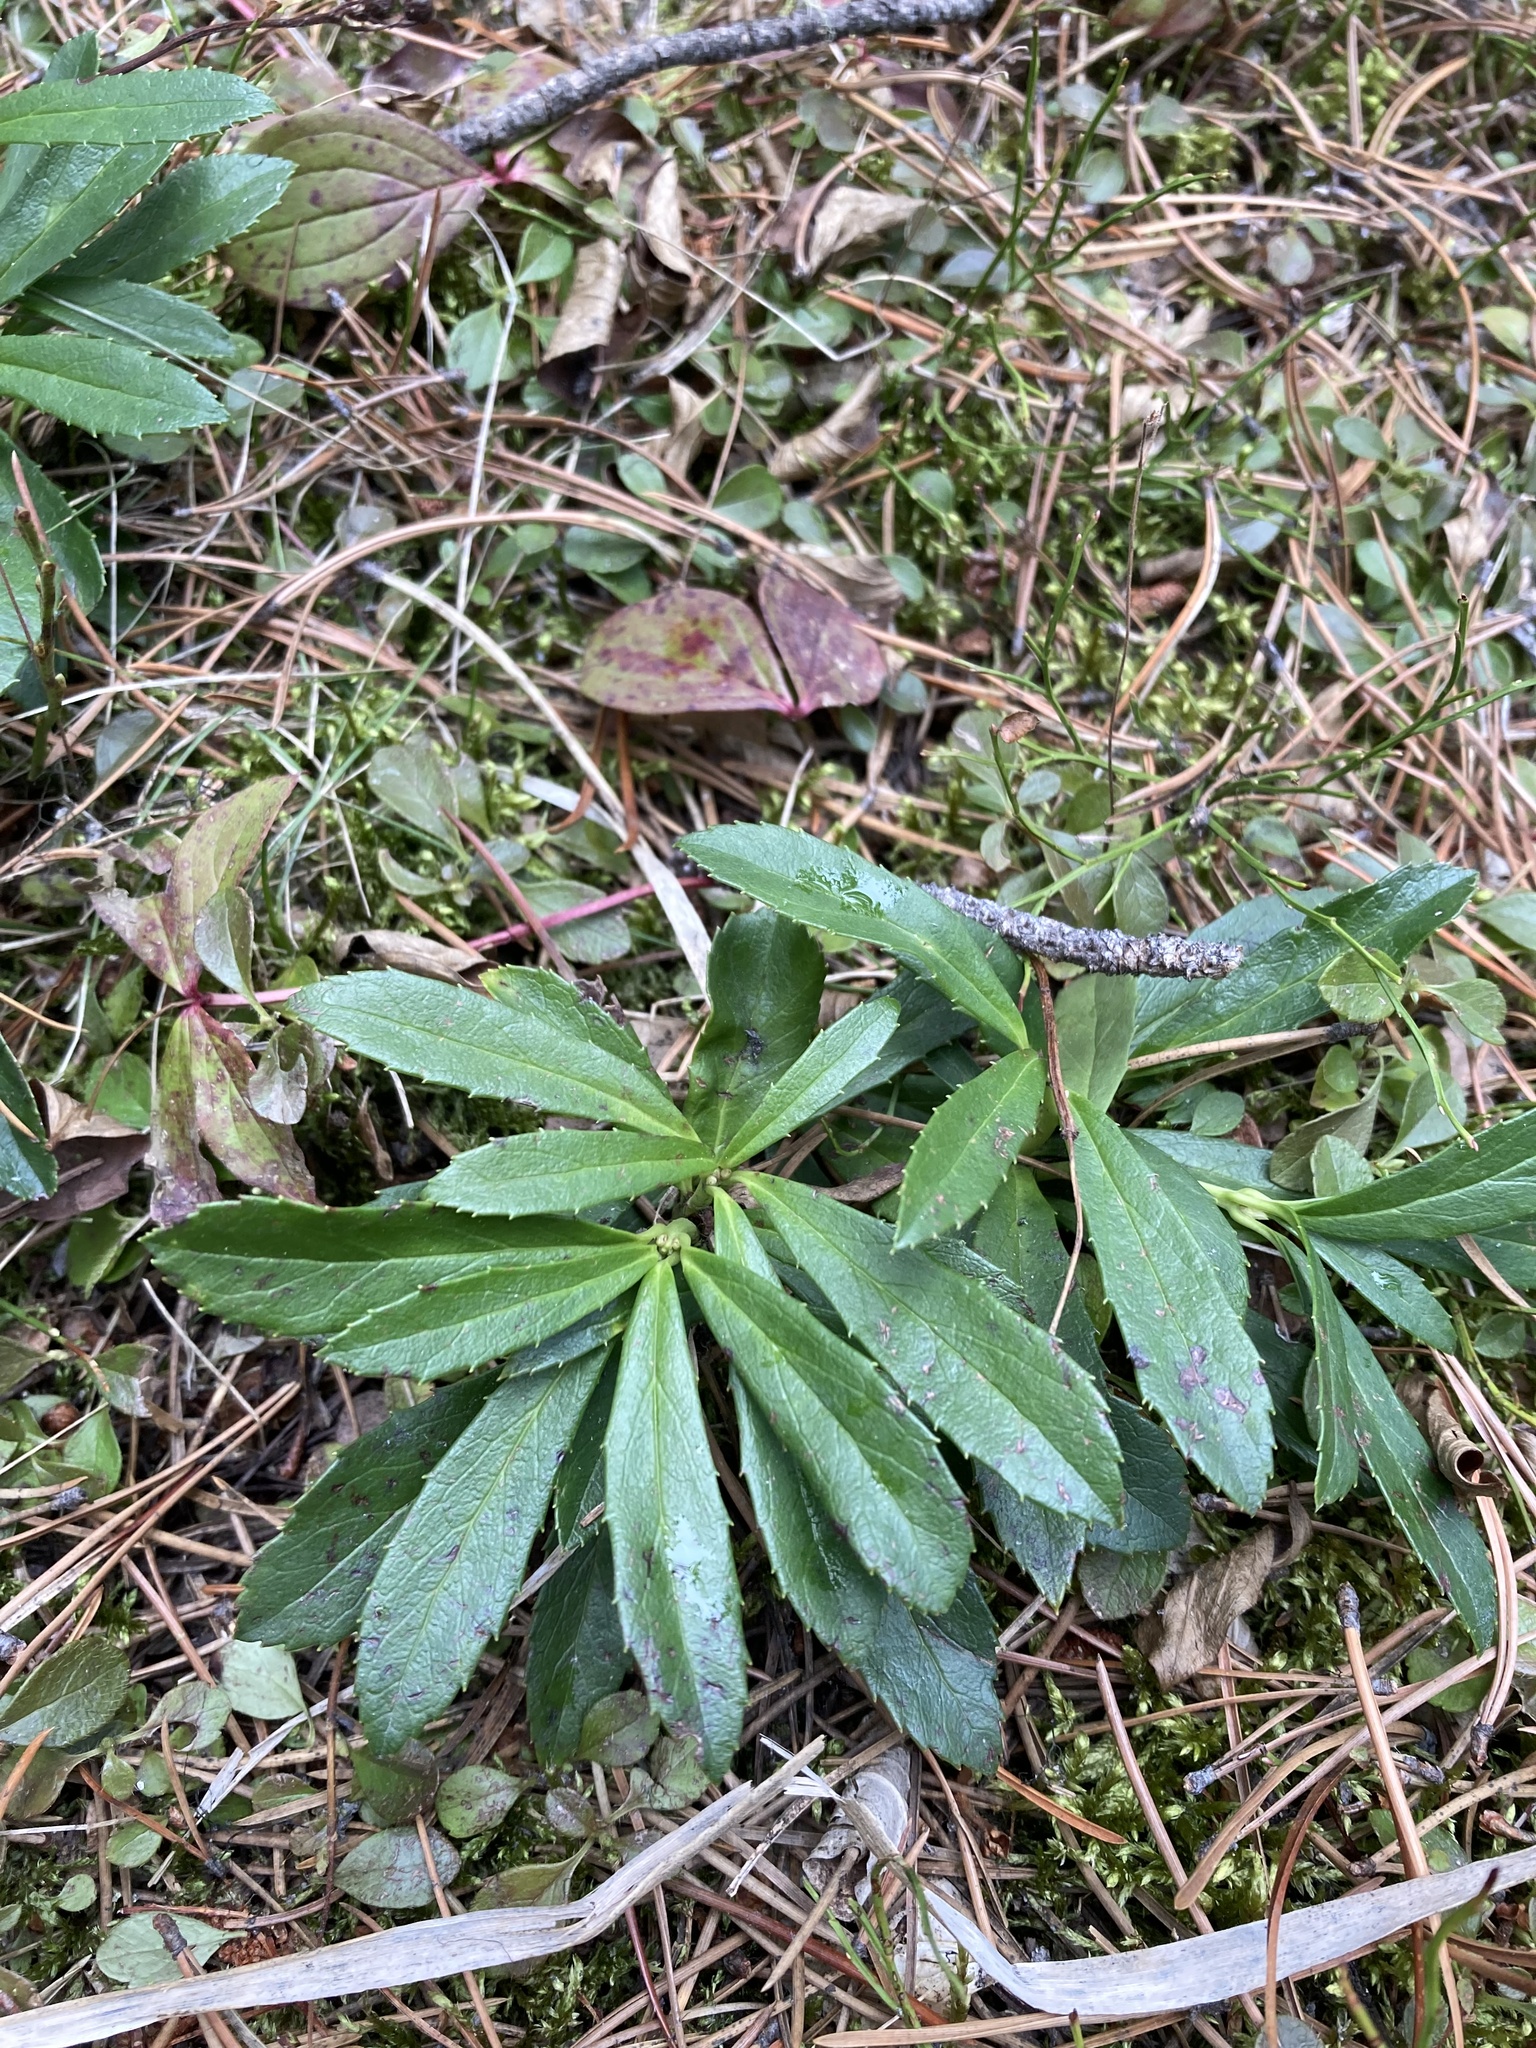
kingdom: Plantae
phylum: Tracheophyta
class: Magnoliopsida
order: Ericales
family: Ericaceae
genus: Chimaphila
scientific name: Chimaphila umbellata
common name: Pipsissewa
